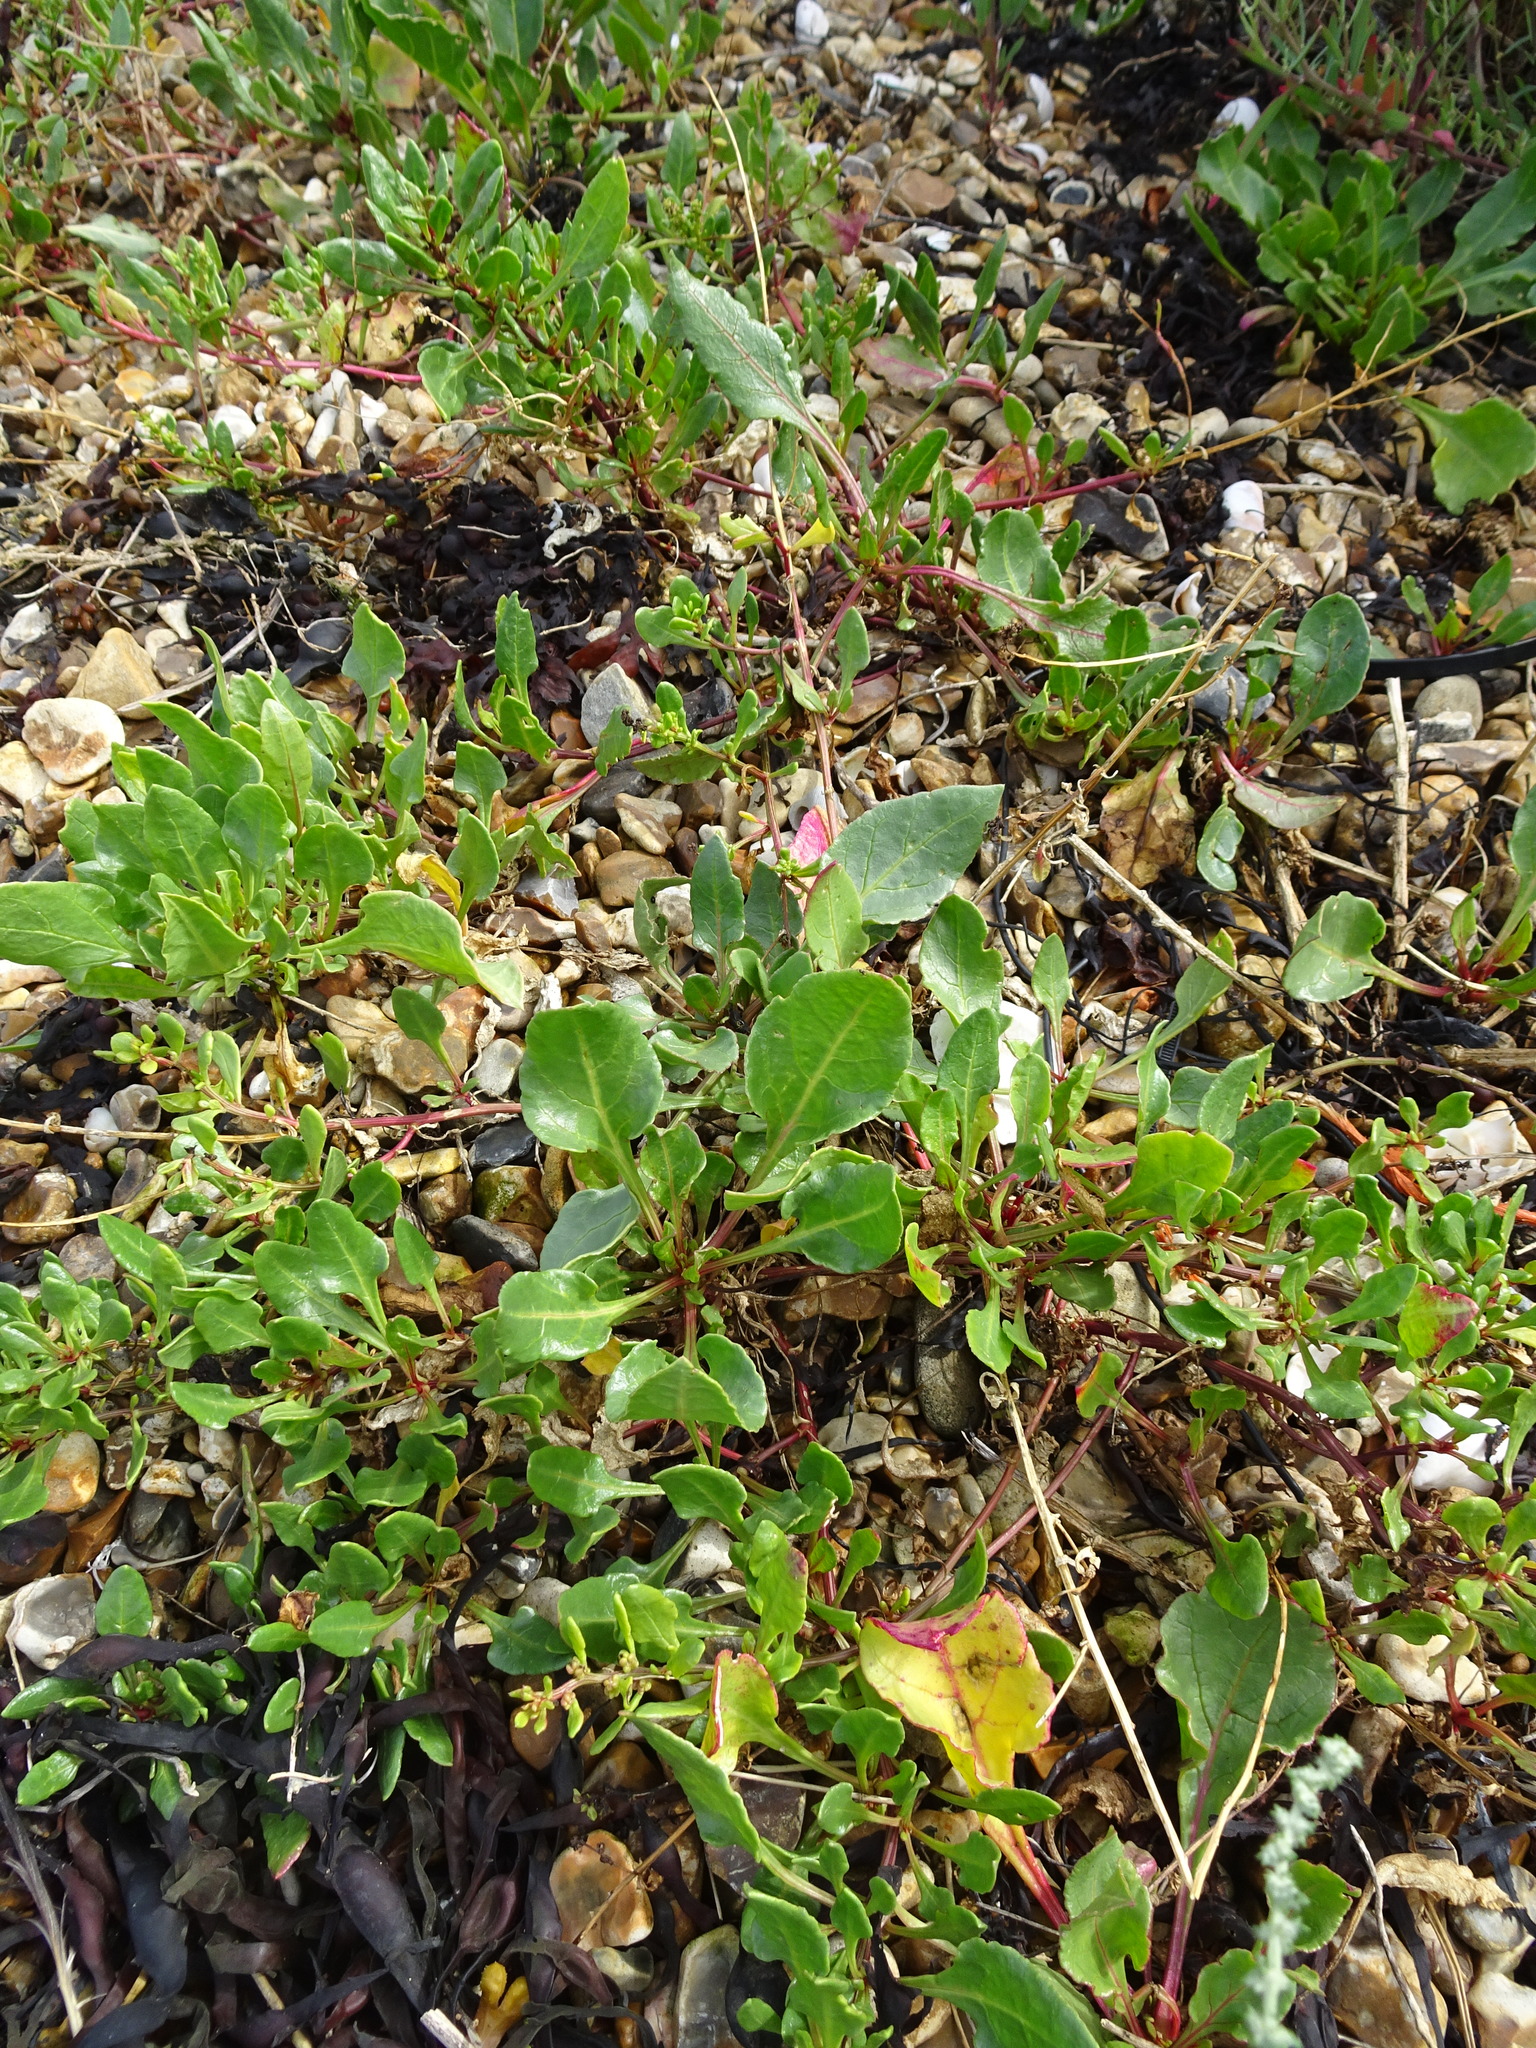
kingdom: Plantae
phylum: Tracheophyta
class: Magnoliopsida
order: Caryophyllales
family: Amaranthaceae
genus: Beta
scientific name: Beta vulgaris
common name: Beet
